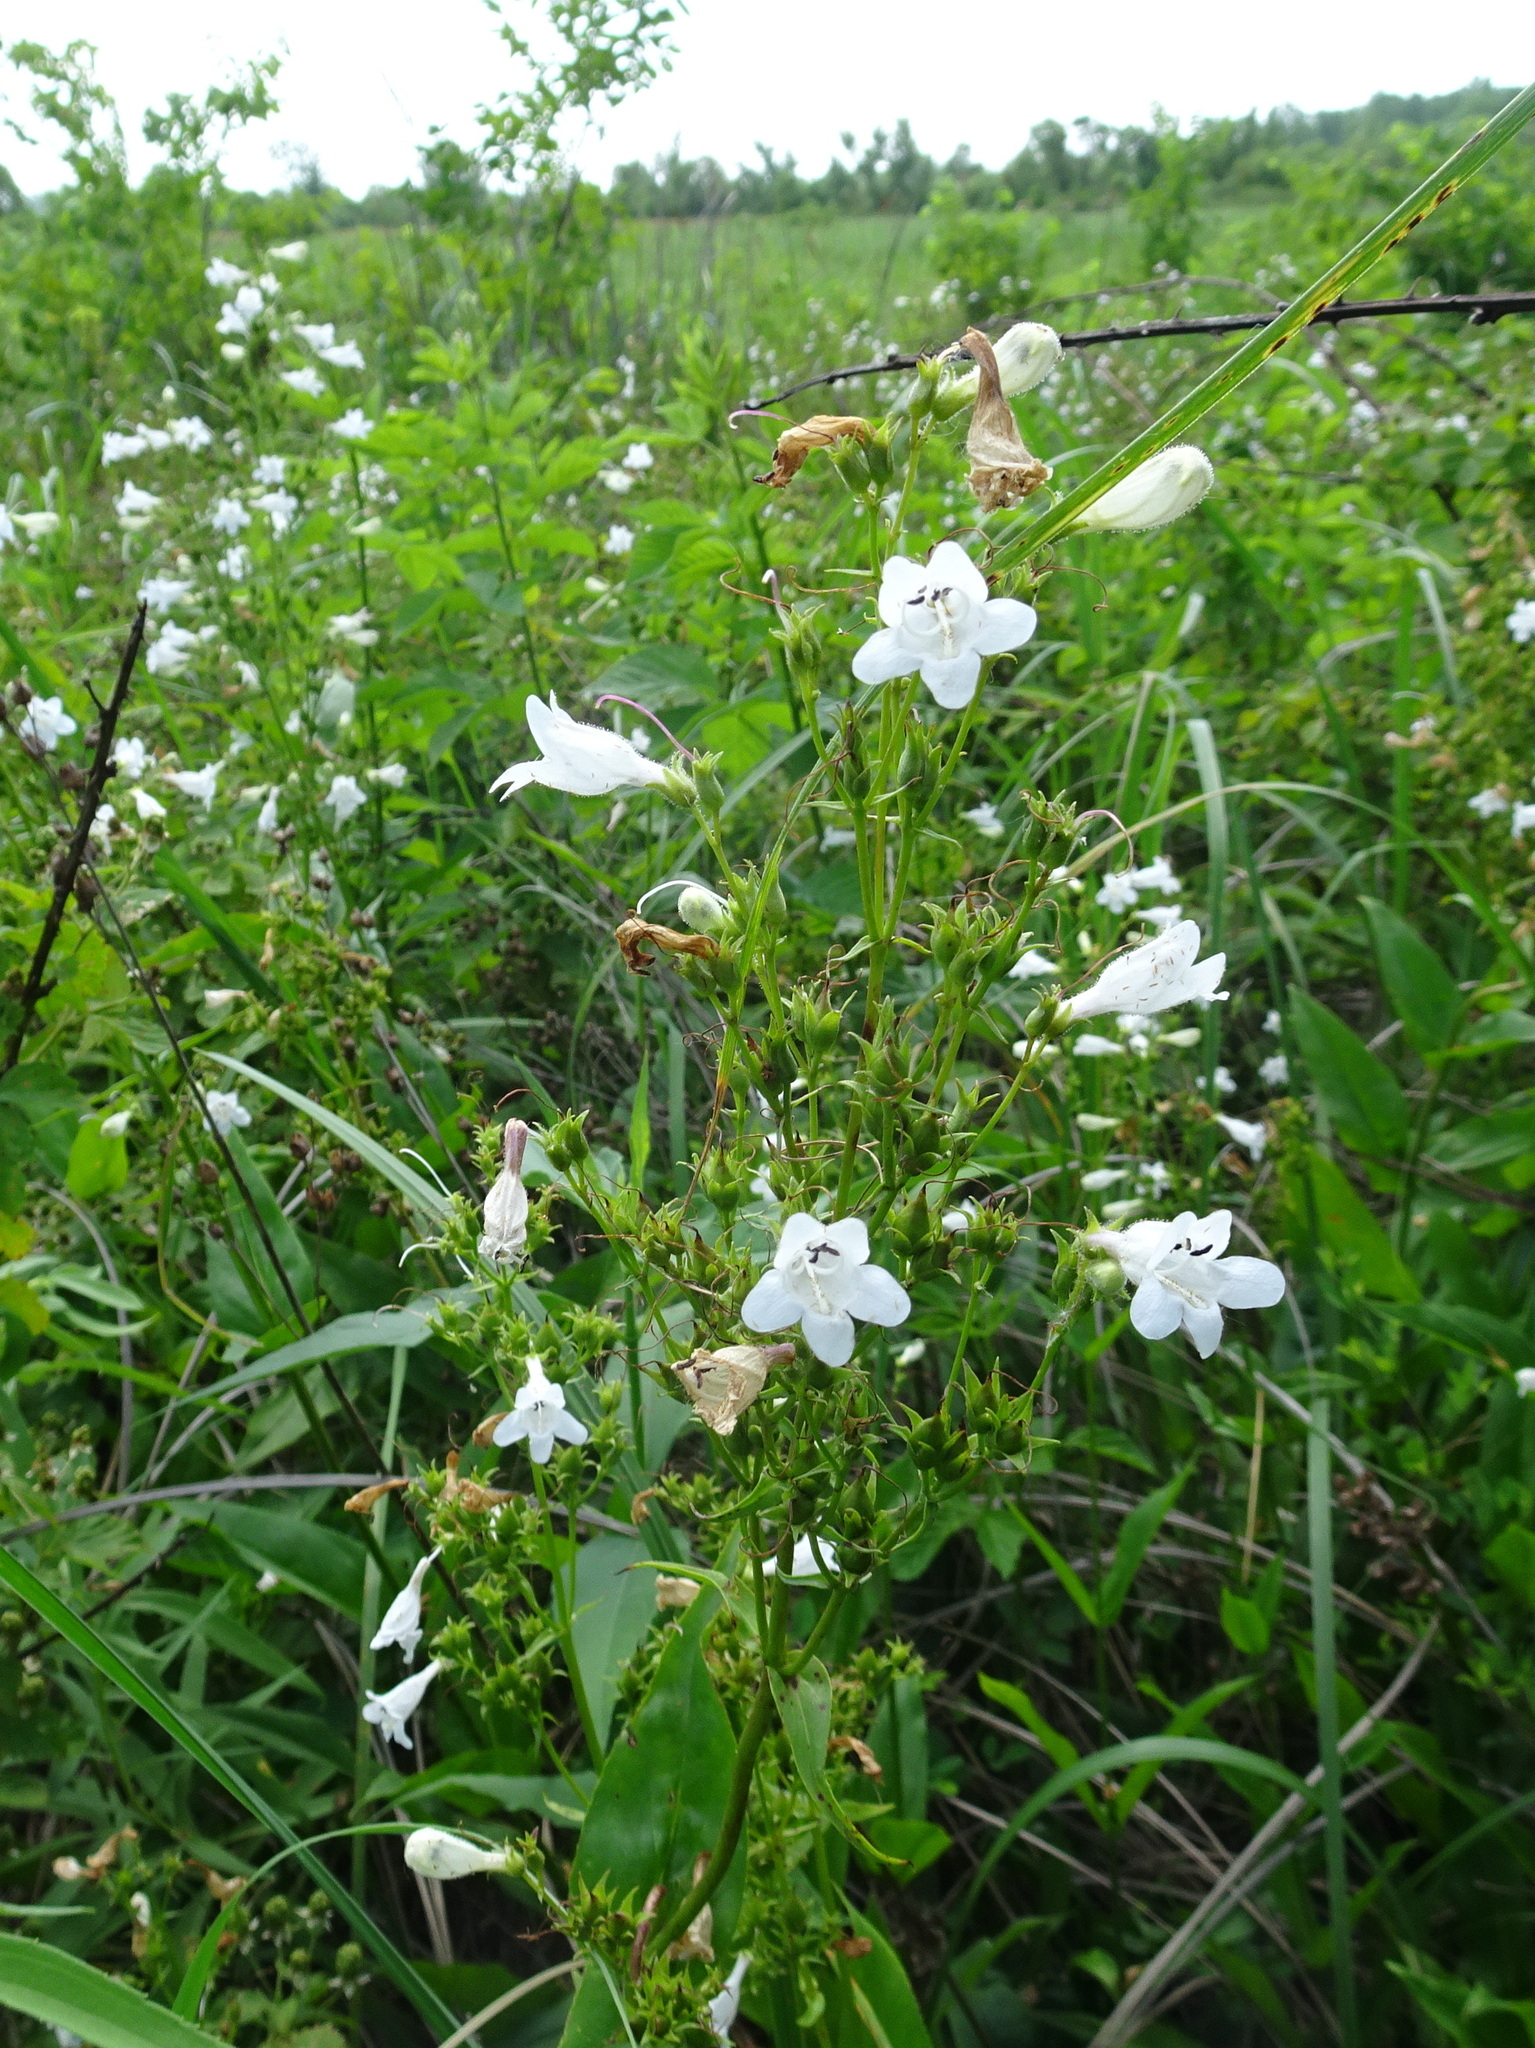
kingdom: Plantae
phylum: Tracheophyta
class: Magnoliopsida
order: Lamiales
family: Plantaginaceae
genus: Penstemon
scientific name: Penstemon digitalis
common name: Foxglove beardtongue
